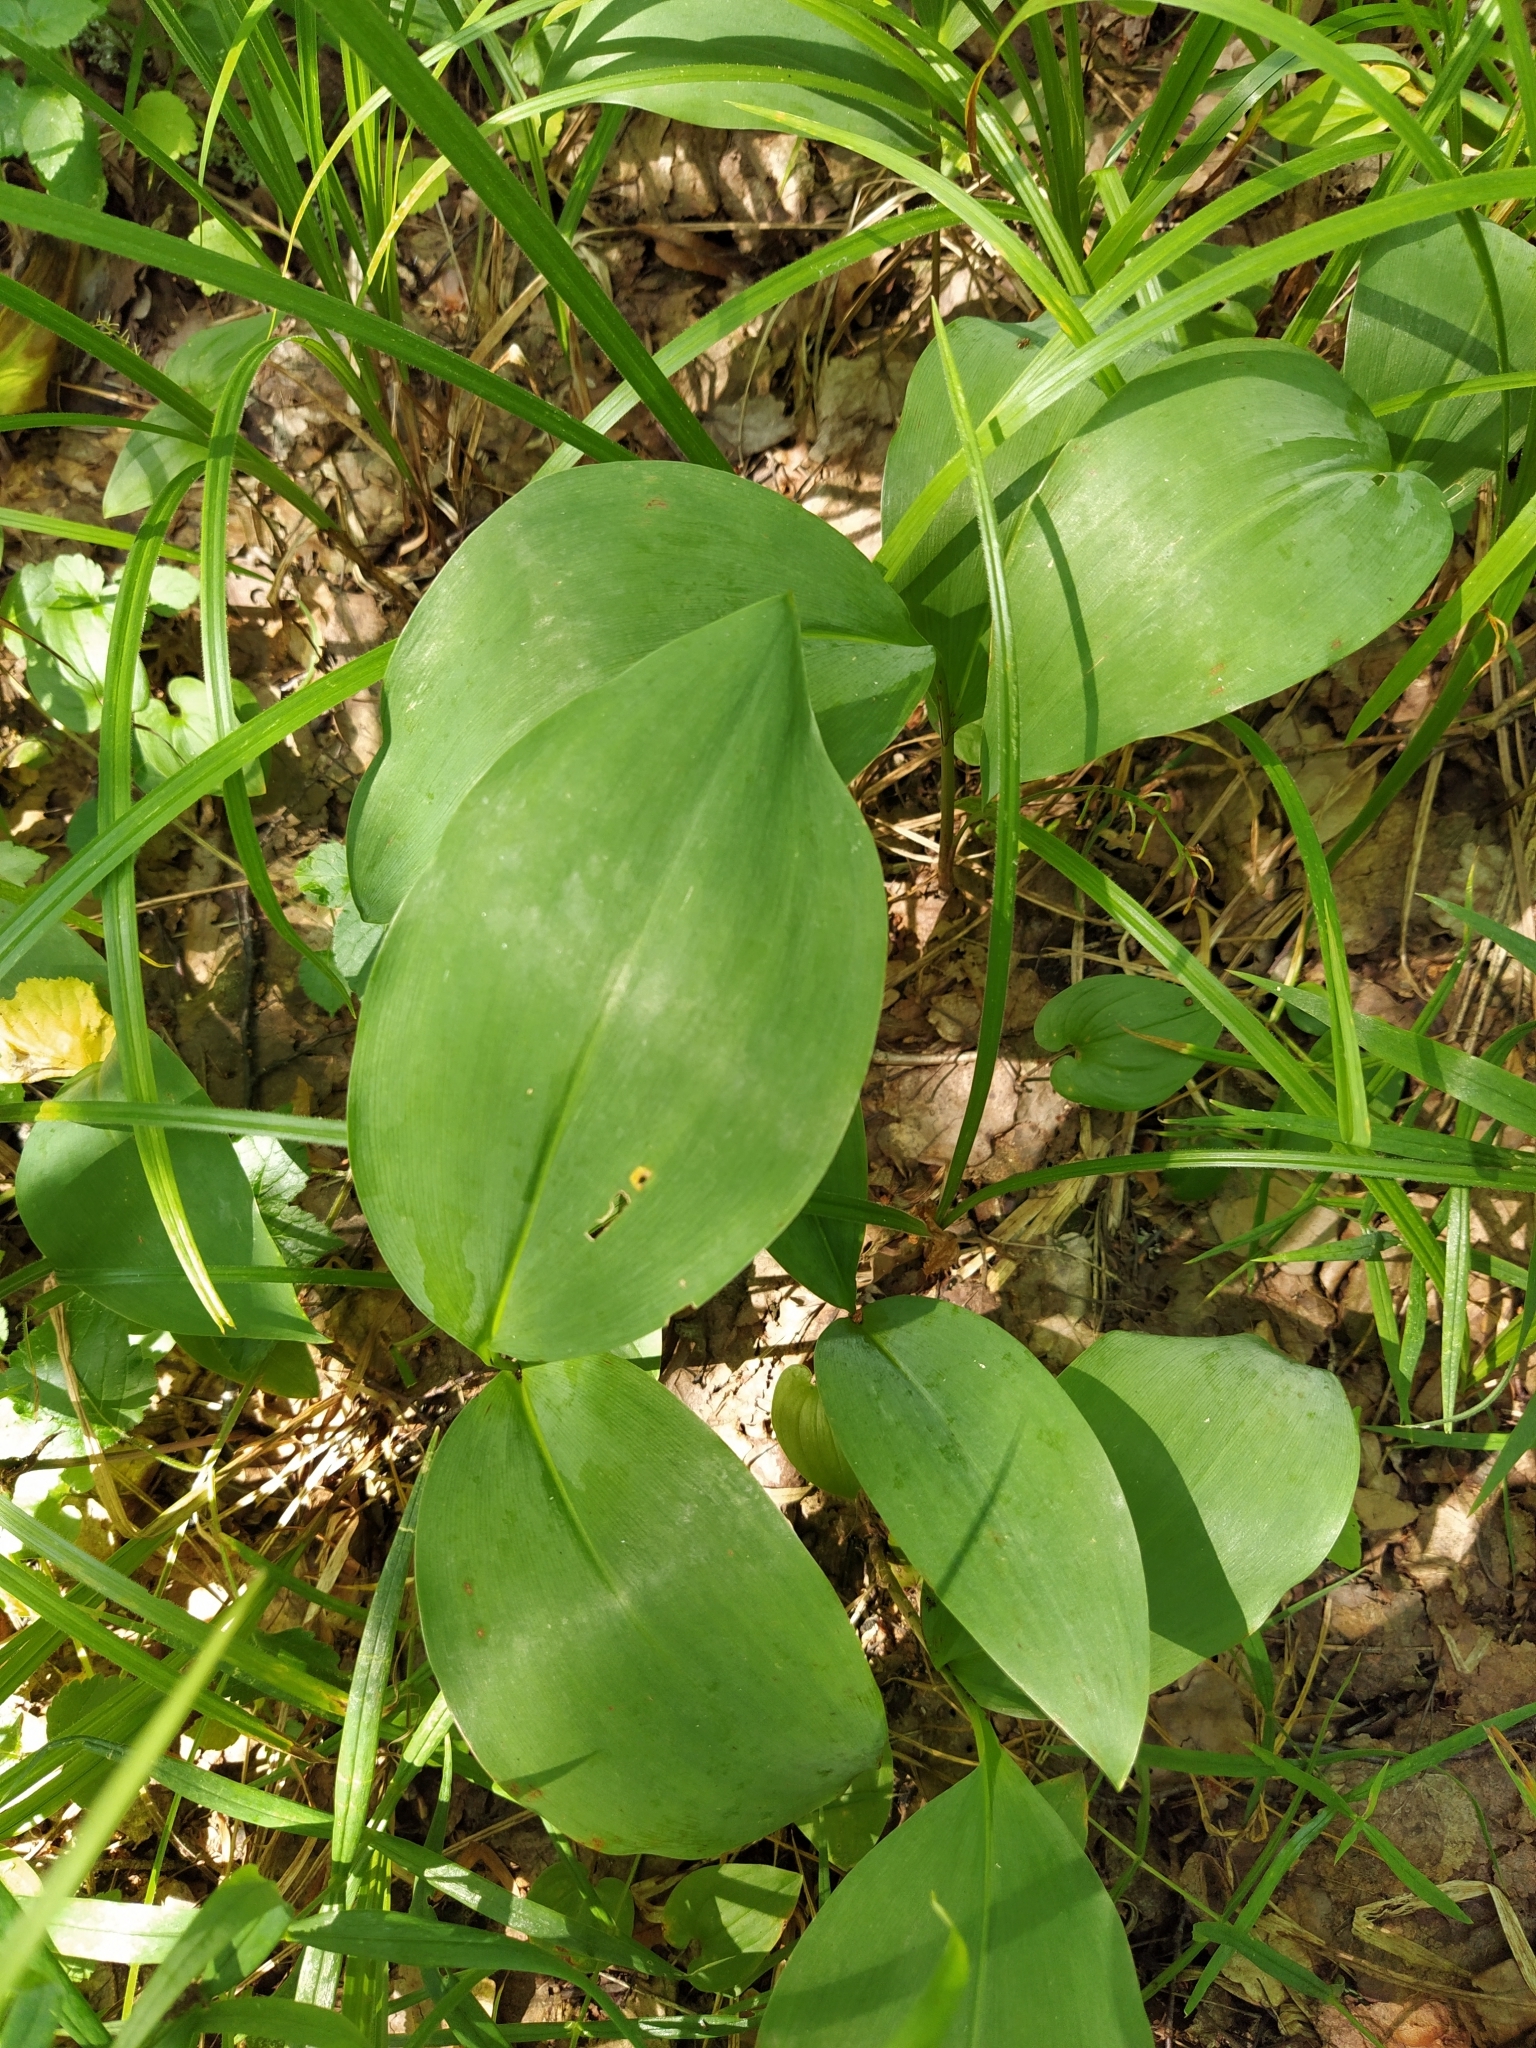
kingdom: Plantae
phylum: Tracheophyta
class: Liliopsida
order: Asparagales
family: Asparagaceae
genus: Convallaria
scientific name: Convallaria majalis
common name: Lily-of-the-valley
